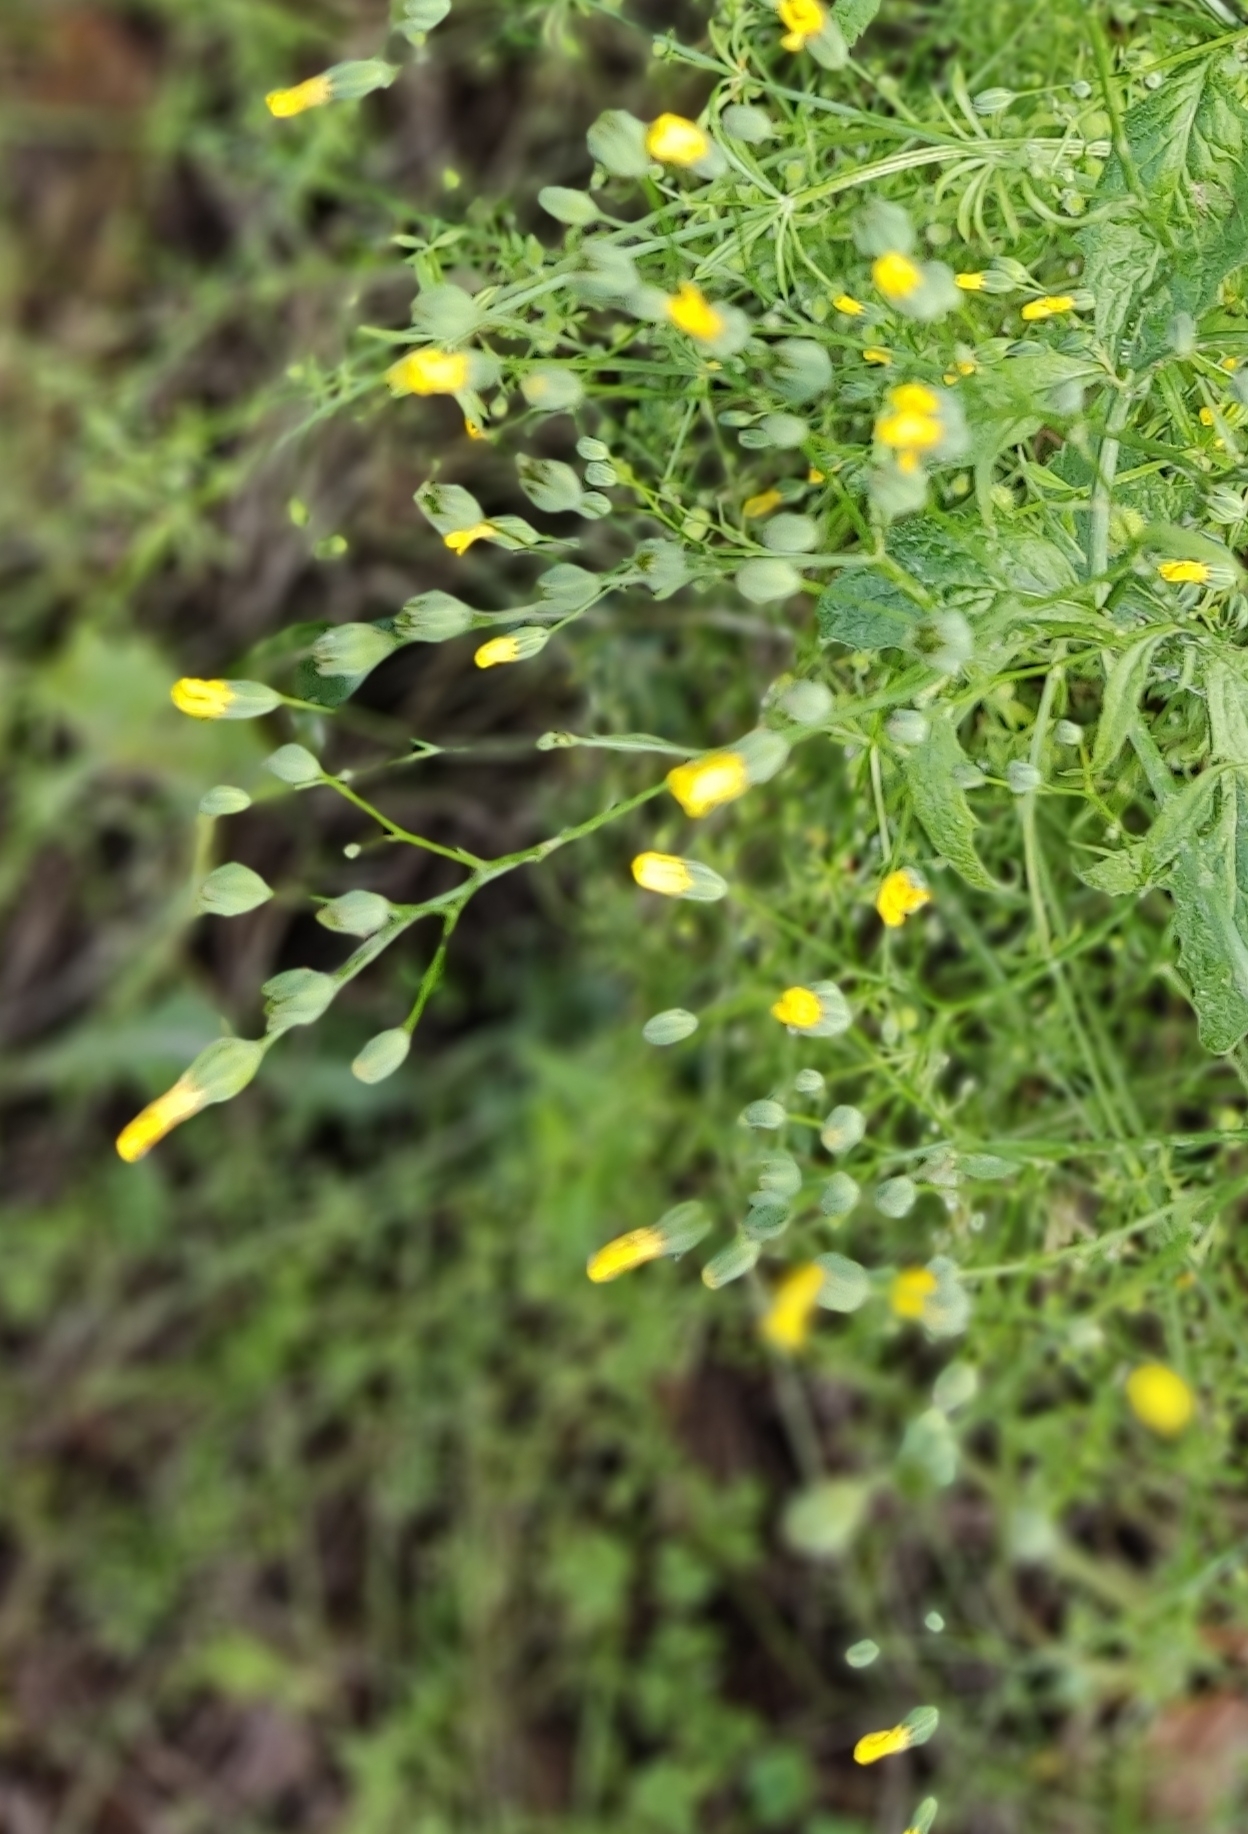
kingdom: Plantae
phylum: Tracheophyta
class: Magnoliopsida
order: Asterales
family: Asteraceae
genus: Lapsana
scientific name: Lapsana communis
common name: Nipplewort
